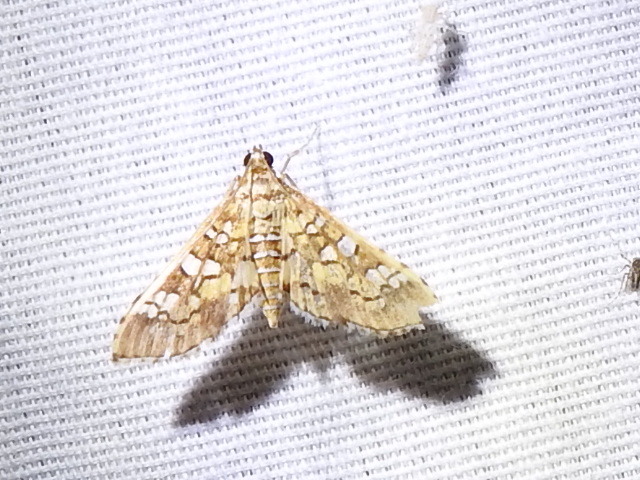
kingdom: Animalia
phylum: Arthropoda
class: Insecta
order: Lepidoptera
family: Crambidae
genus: Samea
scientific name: Samea ecclesialis
